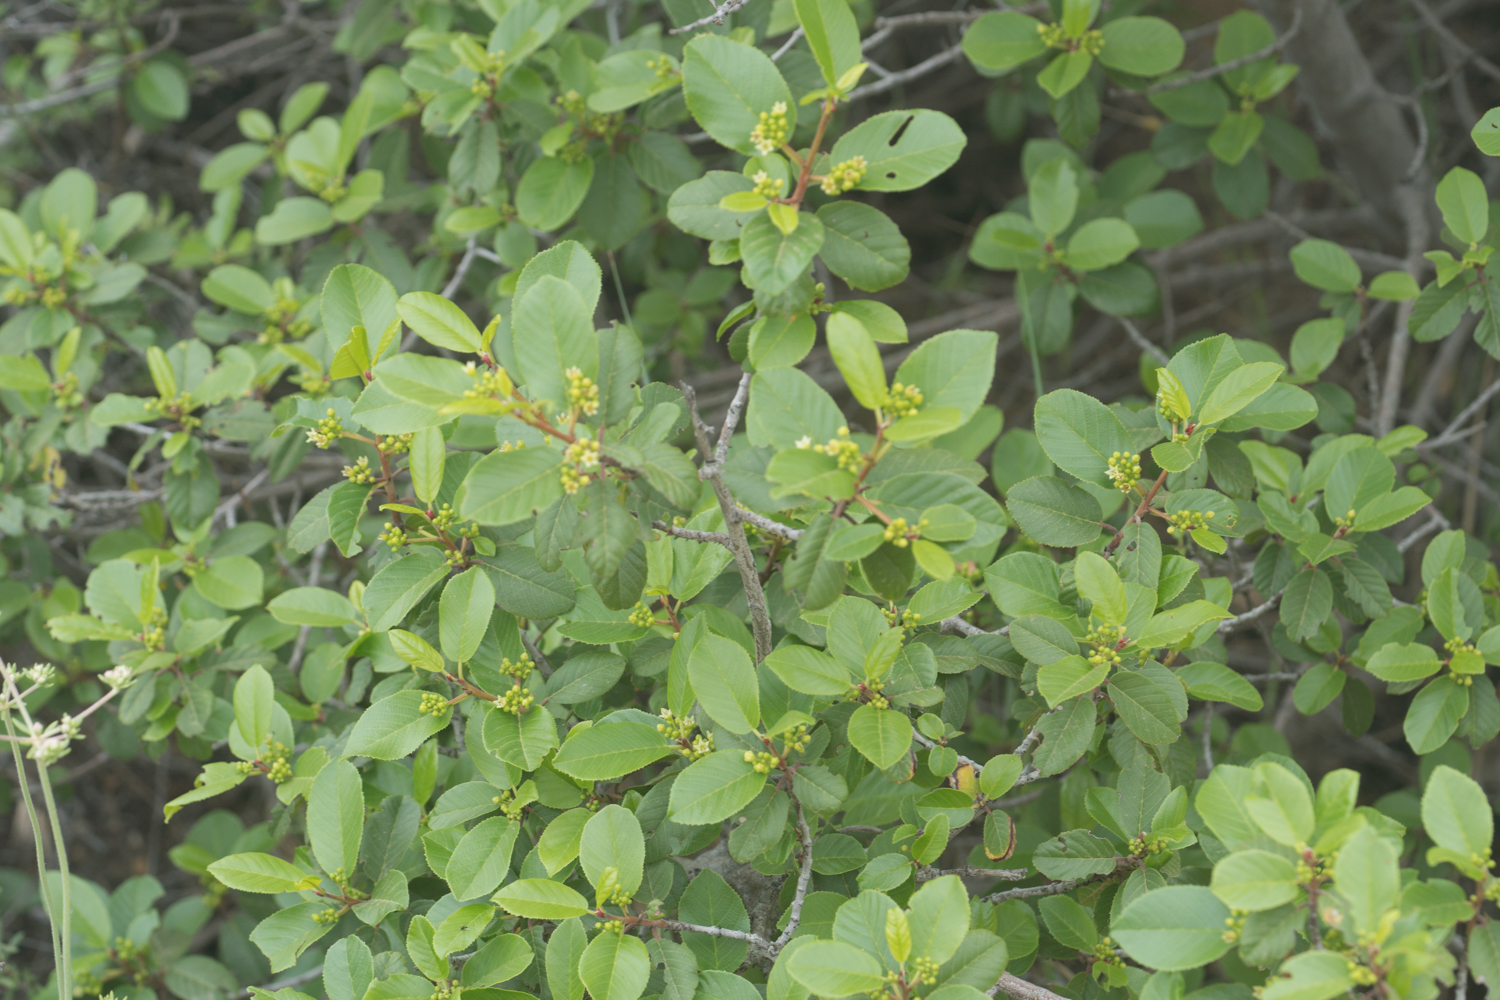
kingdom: Plantae
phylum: Tracheophyta
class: Magnoliopsida
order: Rosales
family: Rhamnaceae
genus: Frangula
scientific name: Frangula californica
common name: California buckthorn
